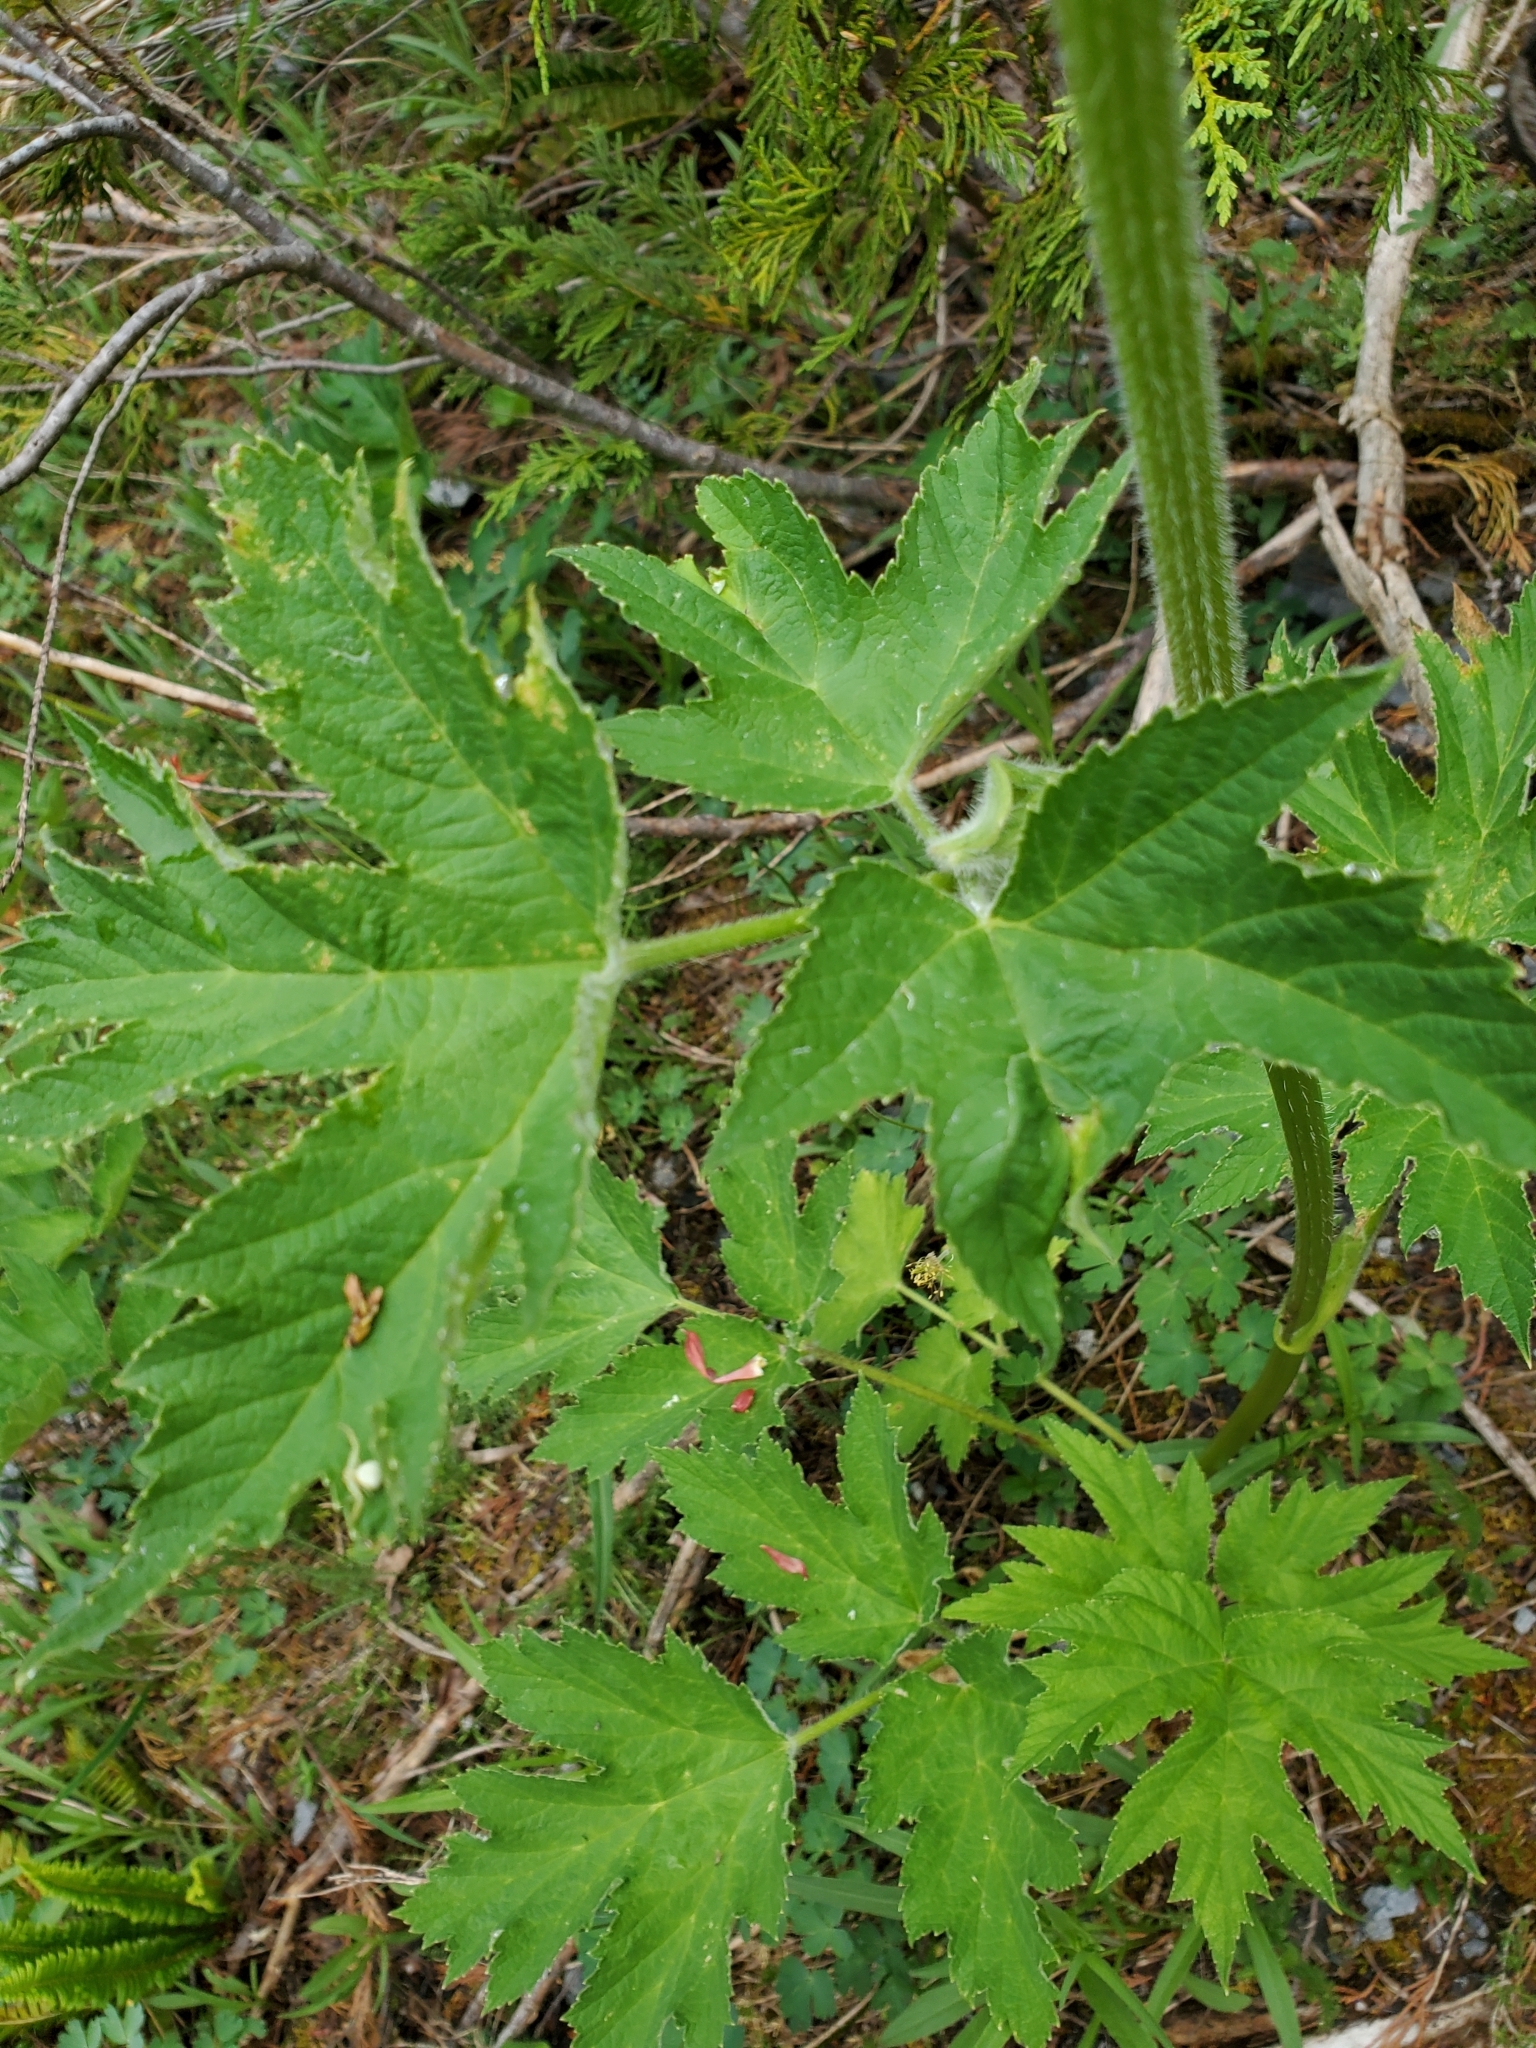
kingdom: Plantae
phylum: Tracheophyta
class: Magnoliopsida
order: Apiales
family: Apiaceae
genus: Heracleum
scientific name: Heracleum maximum
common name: American cow parsnip
